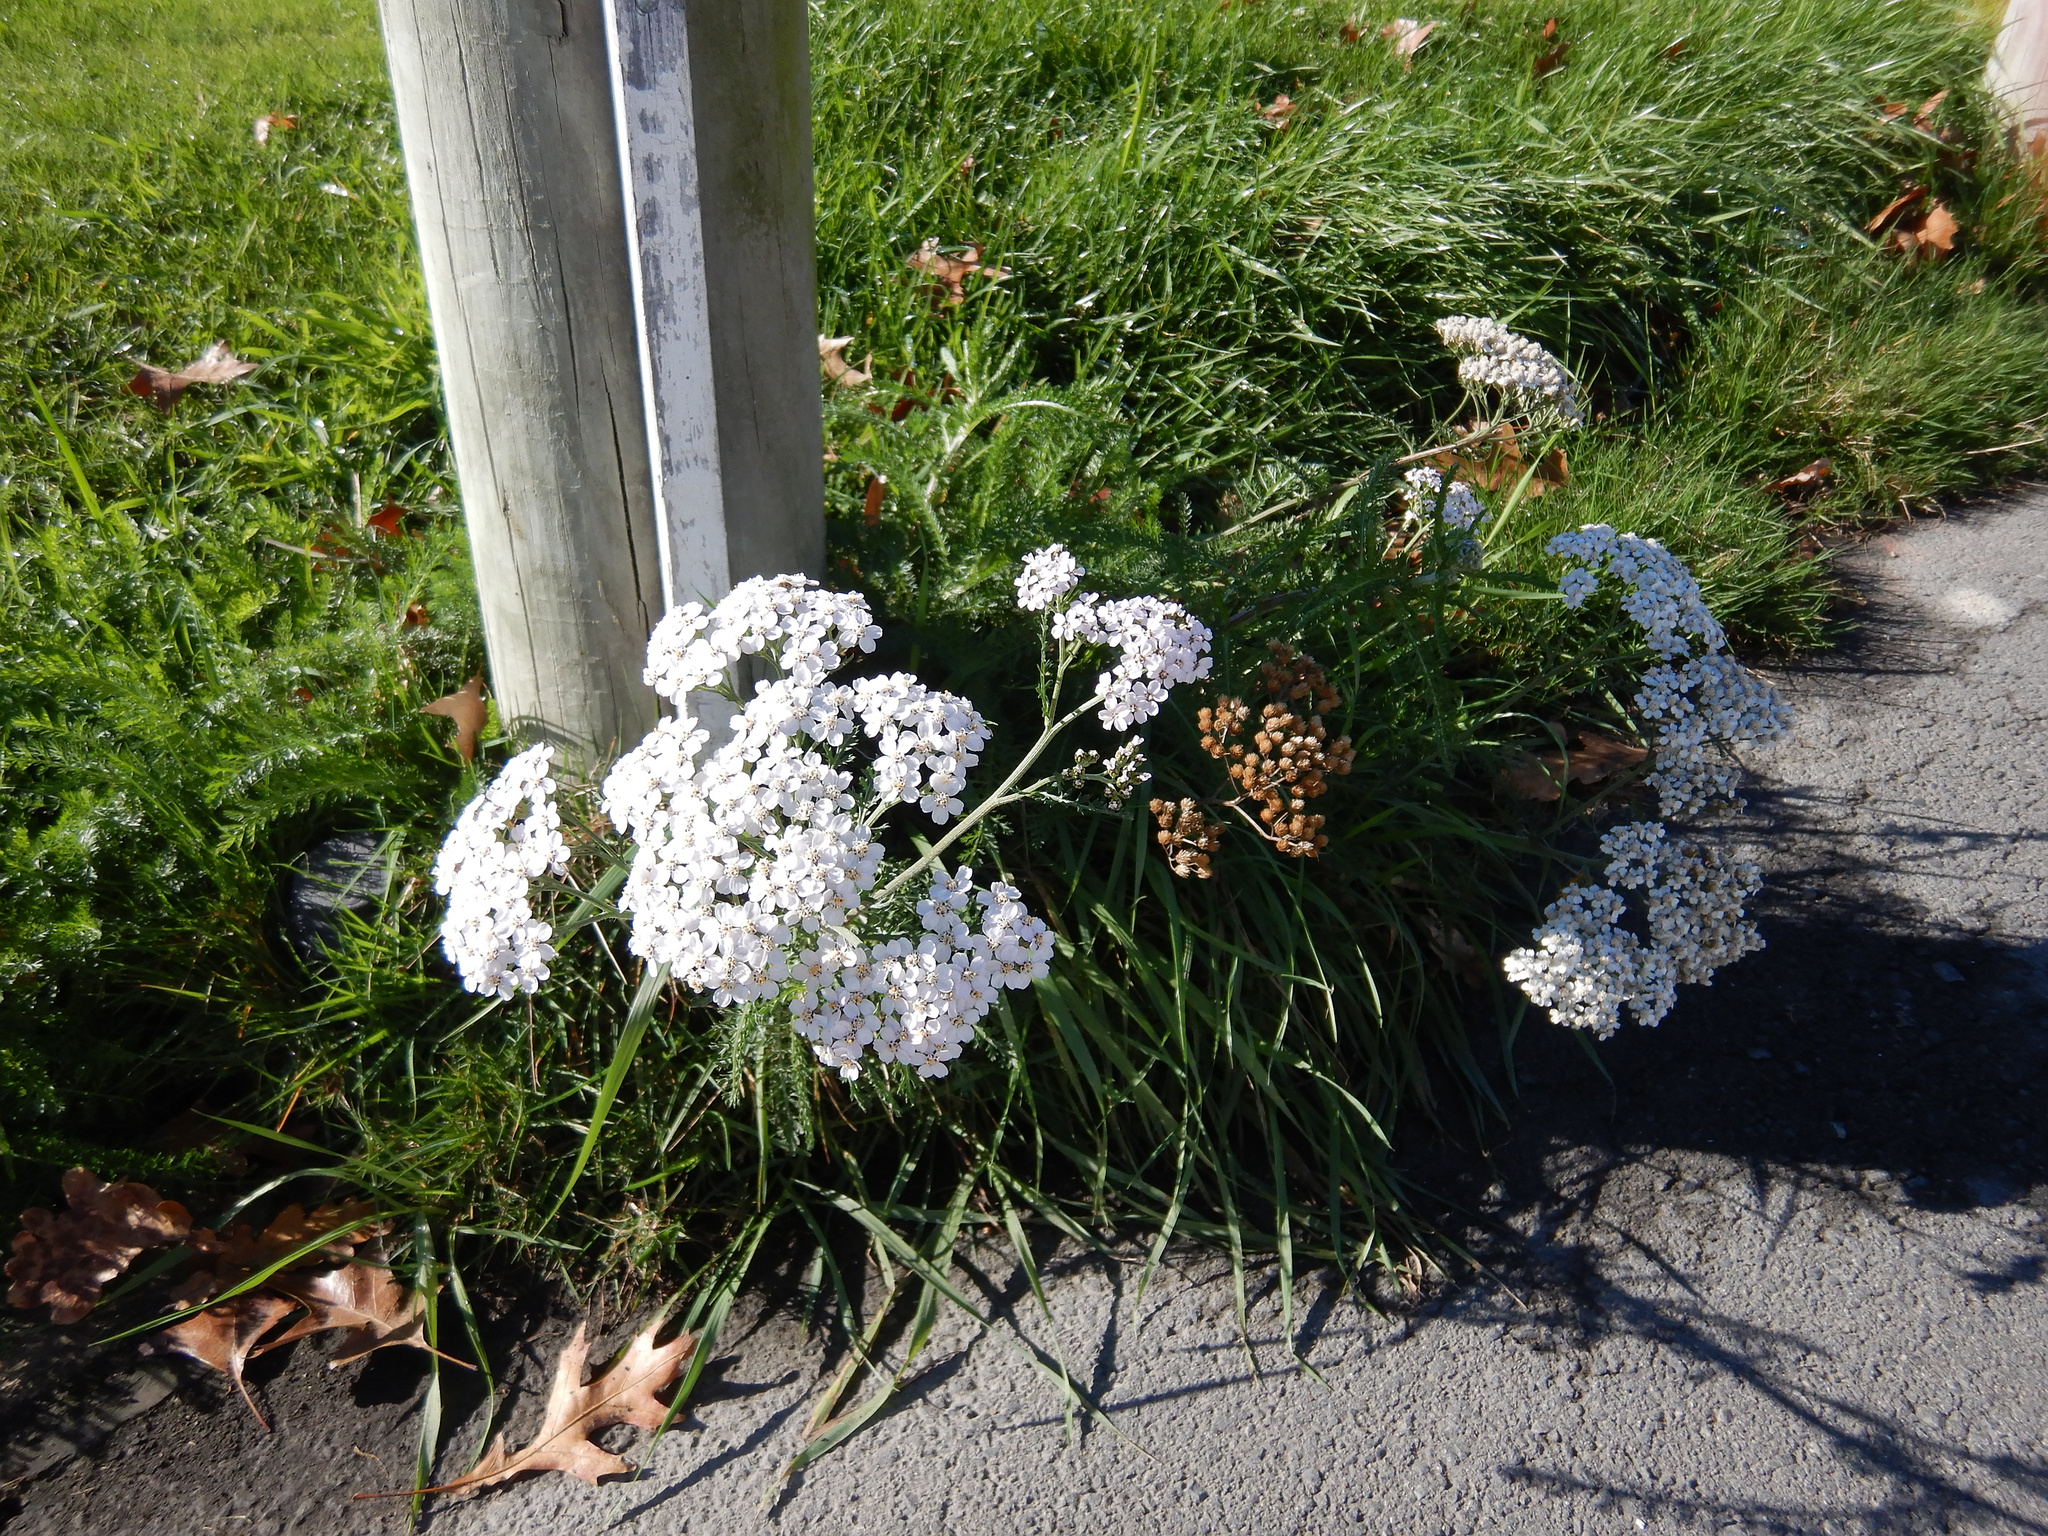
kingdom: Plantae
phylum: Tracheophyta
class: Magnoliopsida
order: Asterales
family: Asteraceae
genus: Achillea
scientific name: Achillea millefolium
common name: Yarrow
